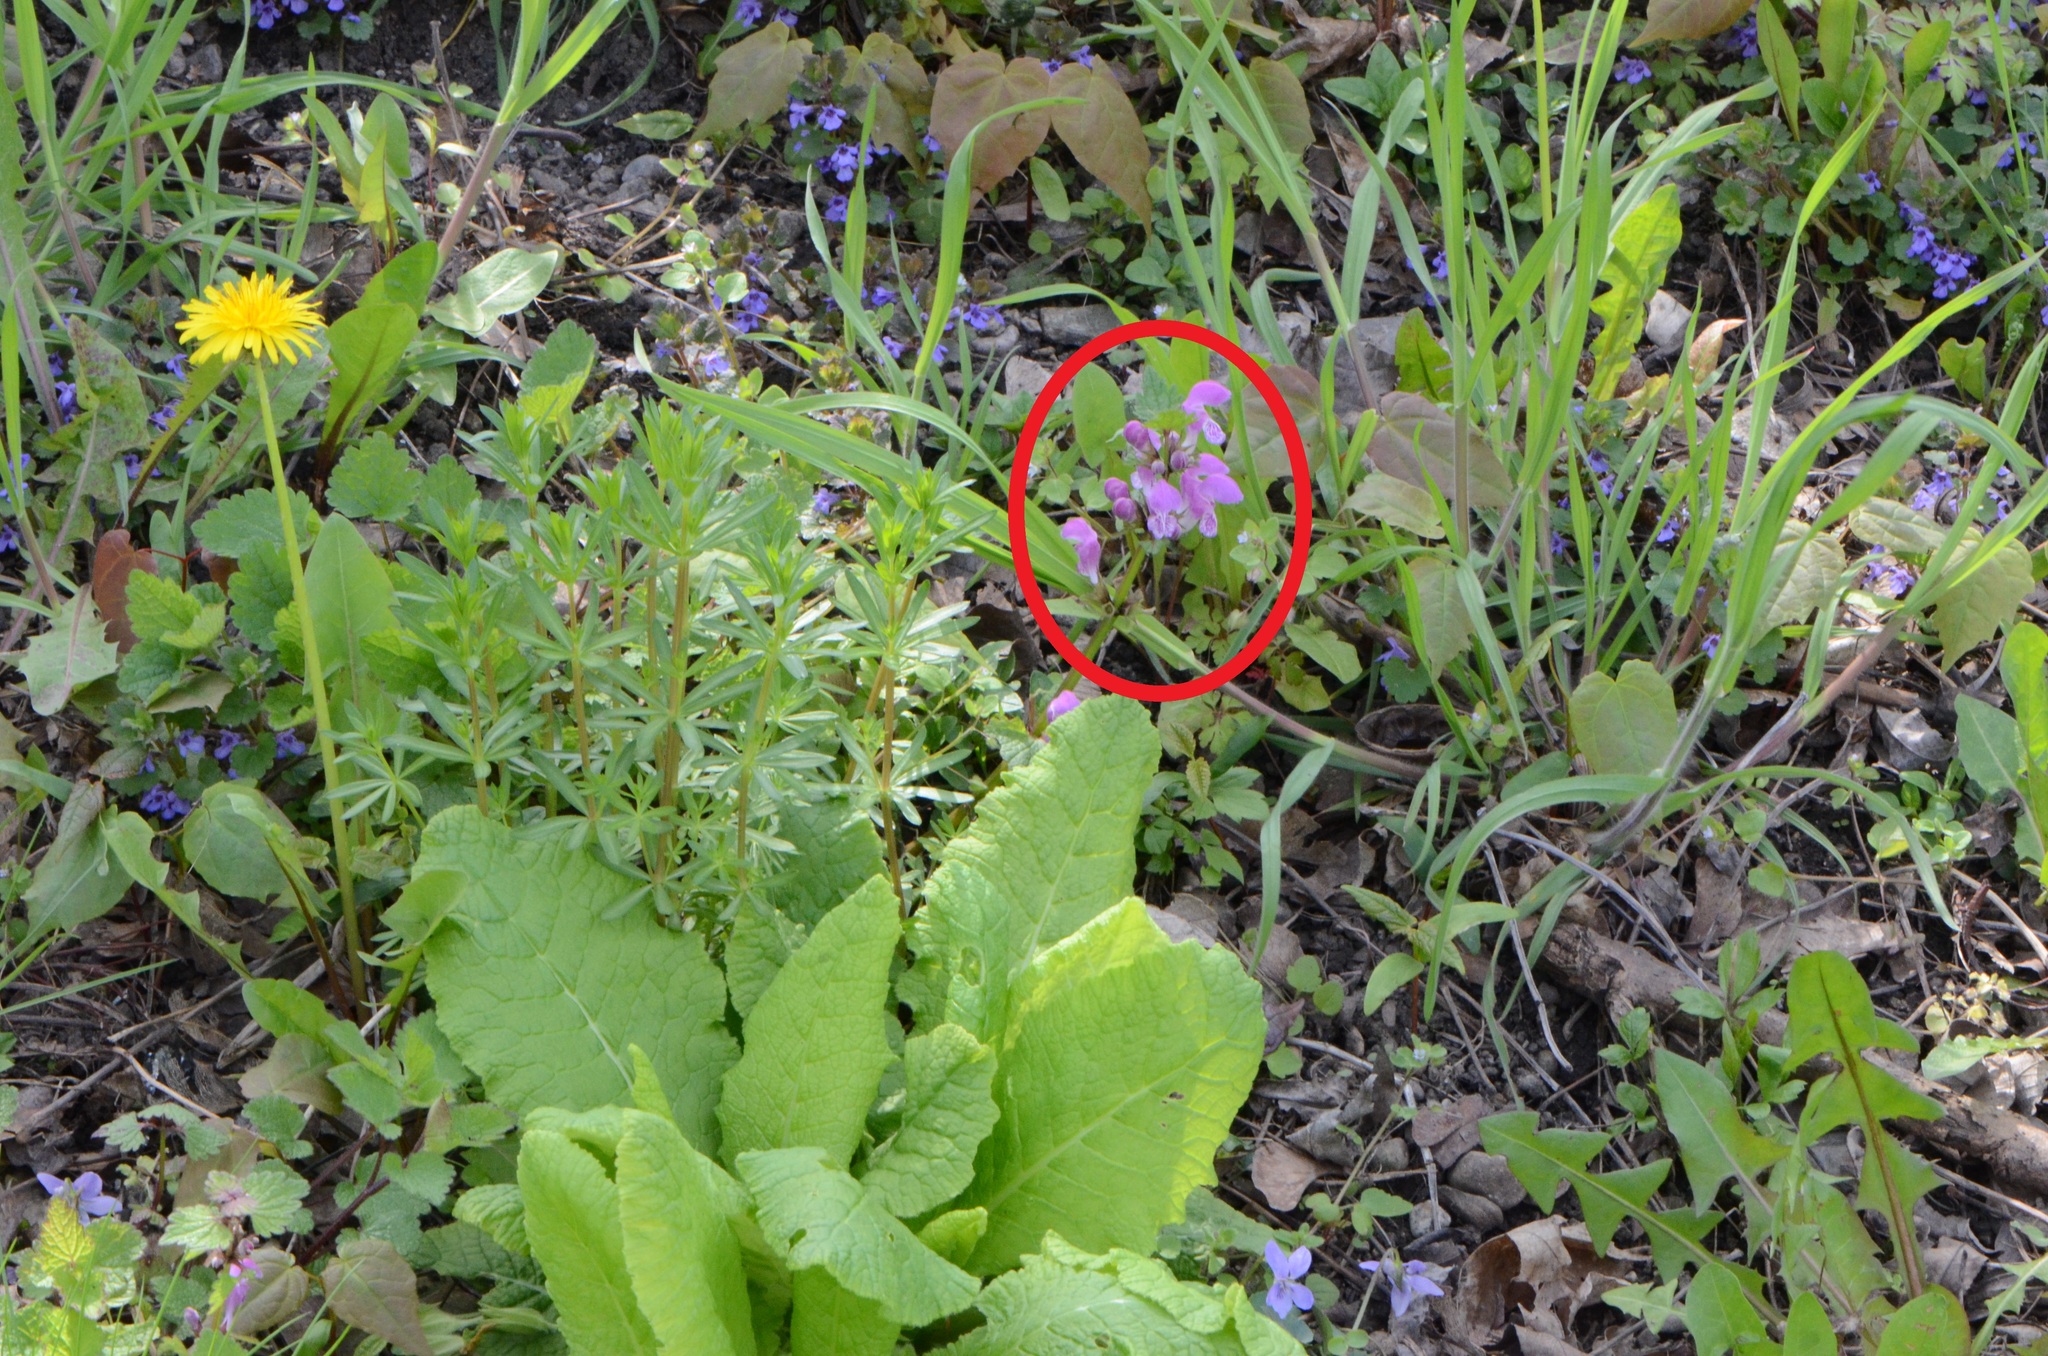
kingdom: Plantae
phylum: Tracheophyta
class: Magnoliopsida
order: Lamiales
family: Lamiaceae
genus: Lamium
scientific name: Lamium maculatum
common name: Spotted dead-nettle
